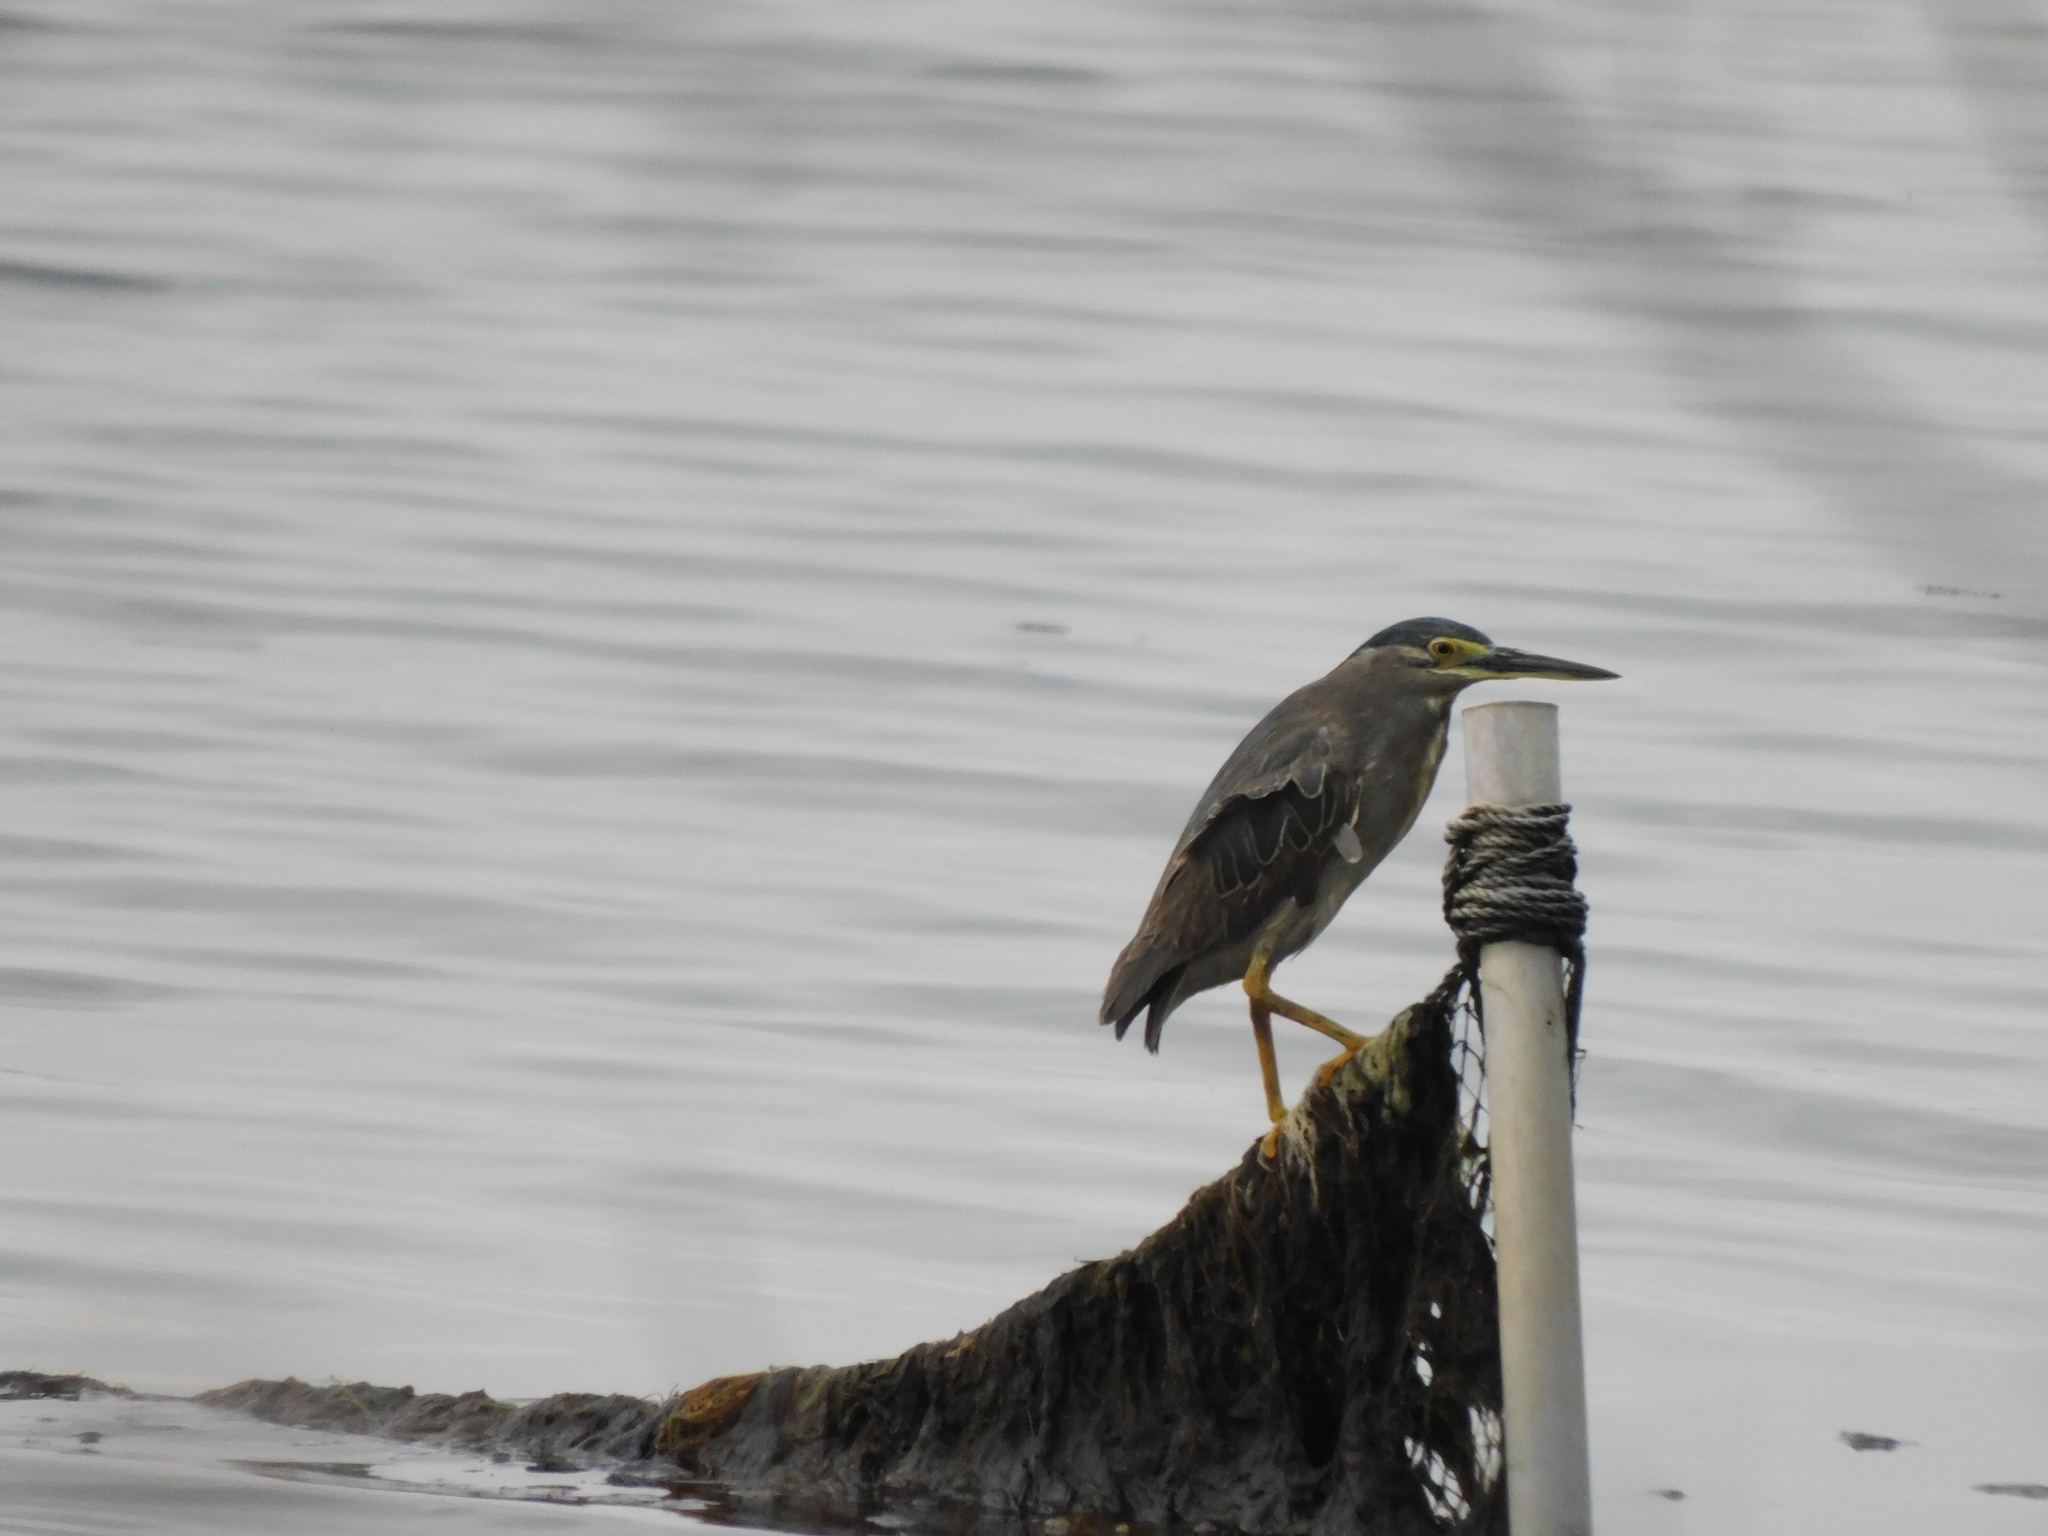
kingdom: Animalia
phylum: Chordata
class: Aves
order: Pelecaniformes
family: Ardeidae
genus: Butorides
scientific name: Butorides striata
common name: Striated heron
